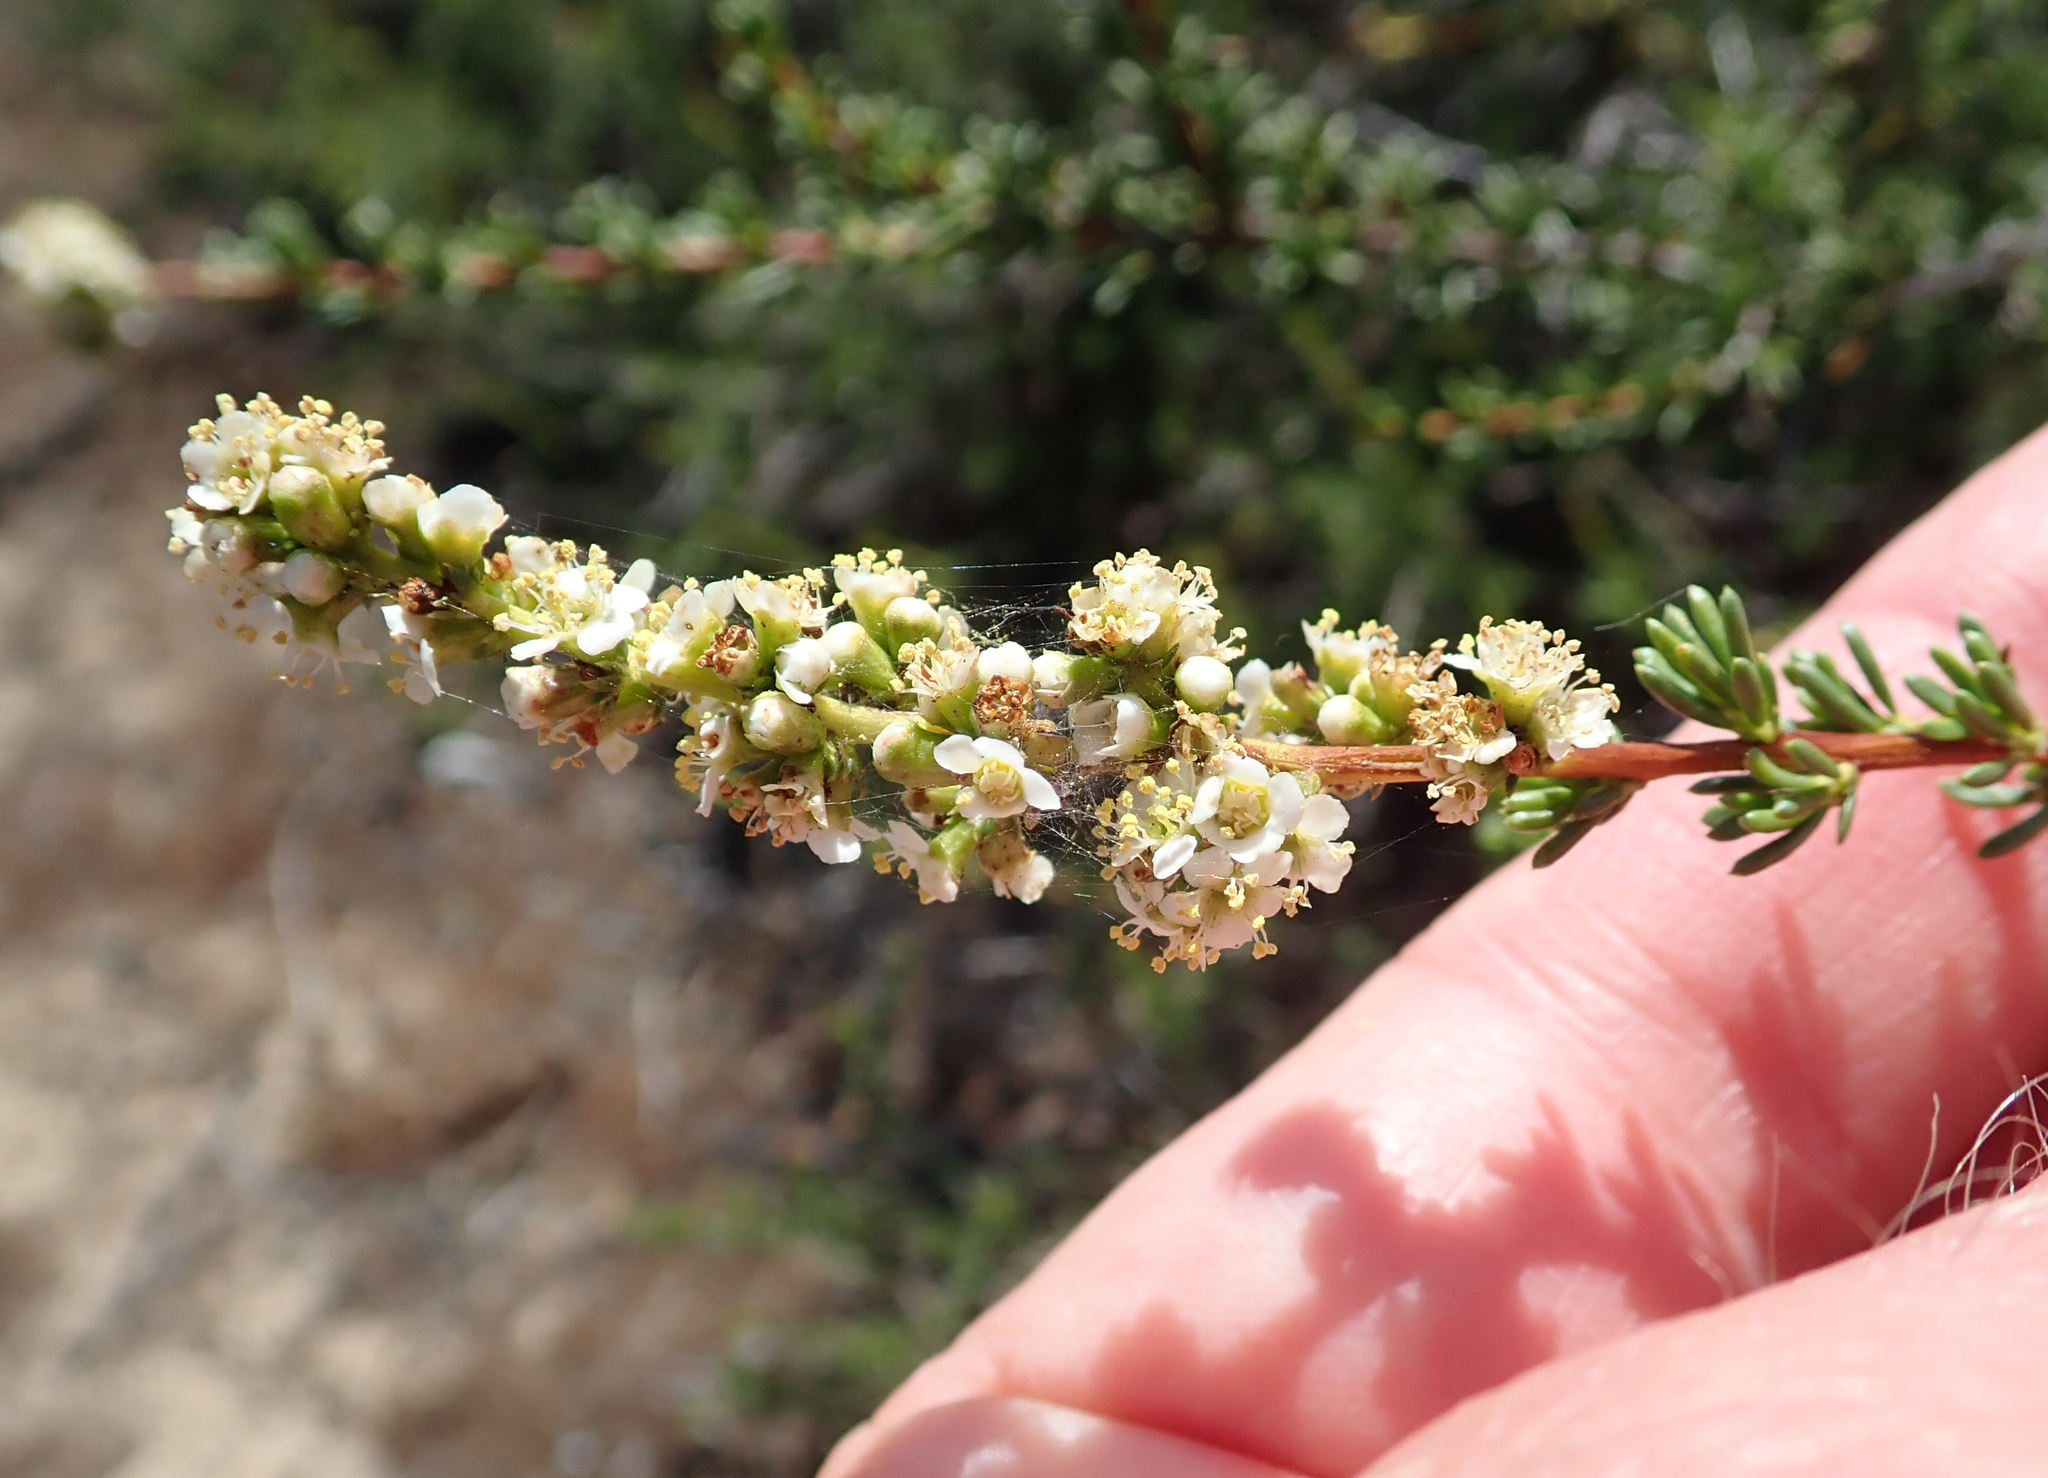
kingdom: Plantae
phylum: Tracheophyta
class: Magnoliopsida
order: Rosales
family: Rosaceae
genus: Adenostoma
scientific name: Adenostoma fasciculatum
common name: Chamise
